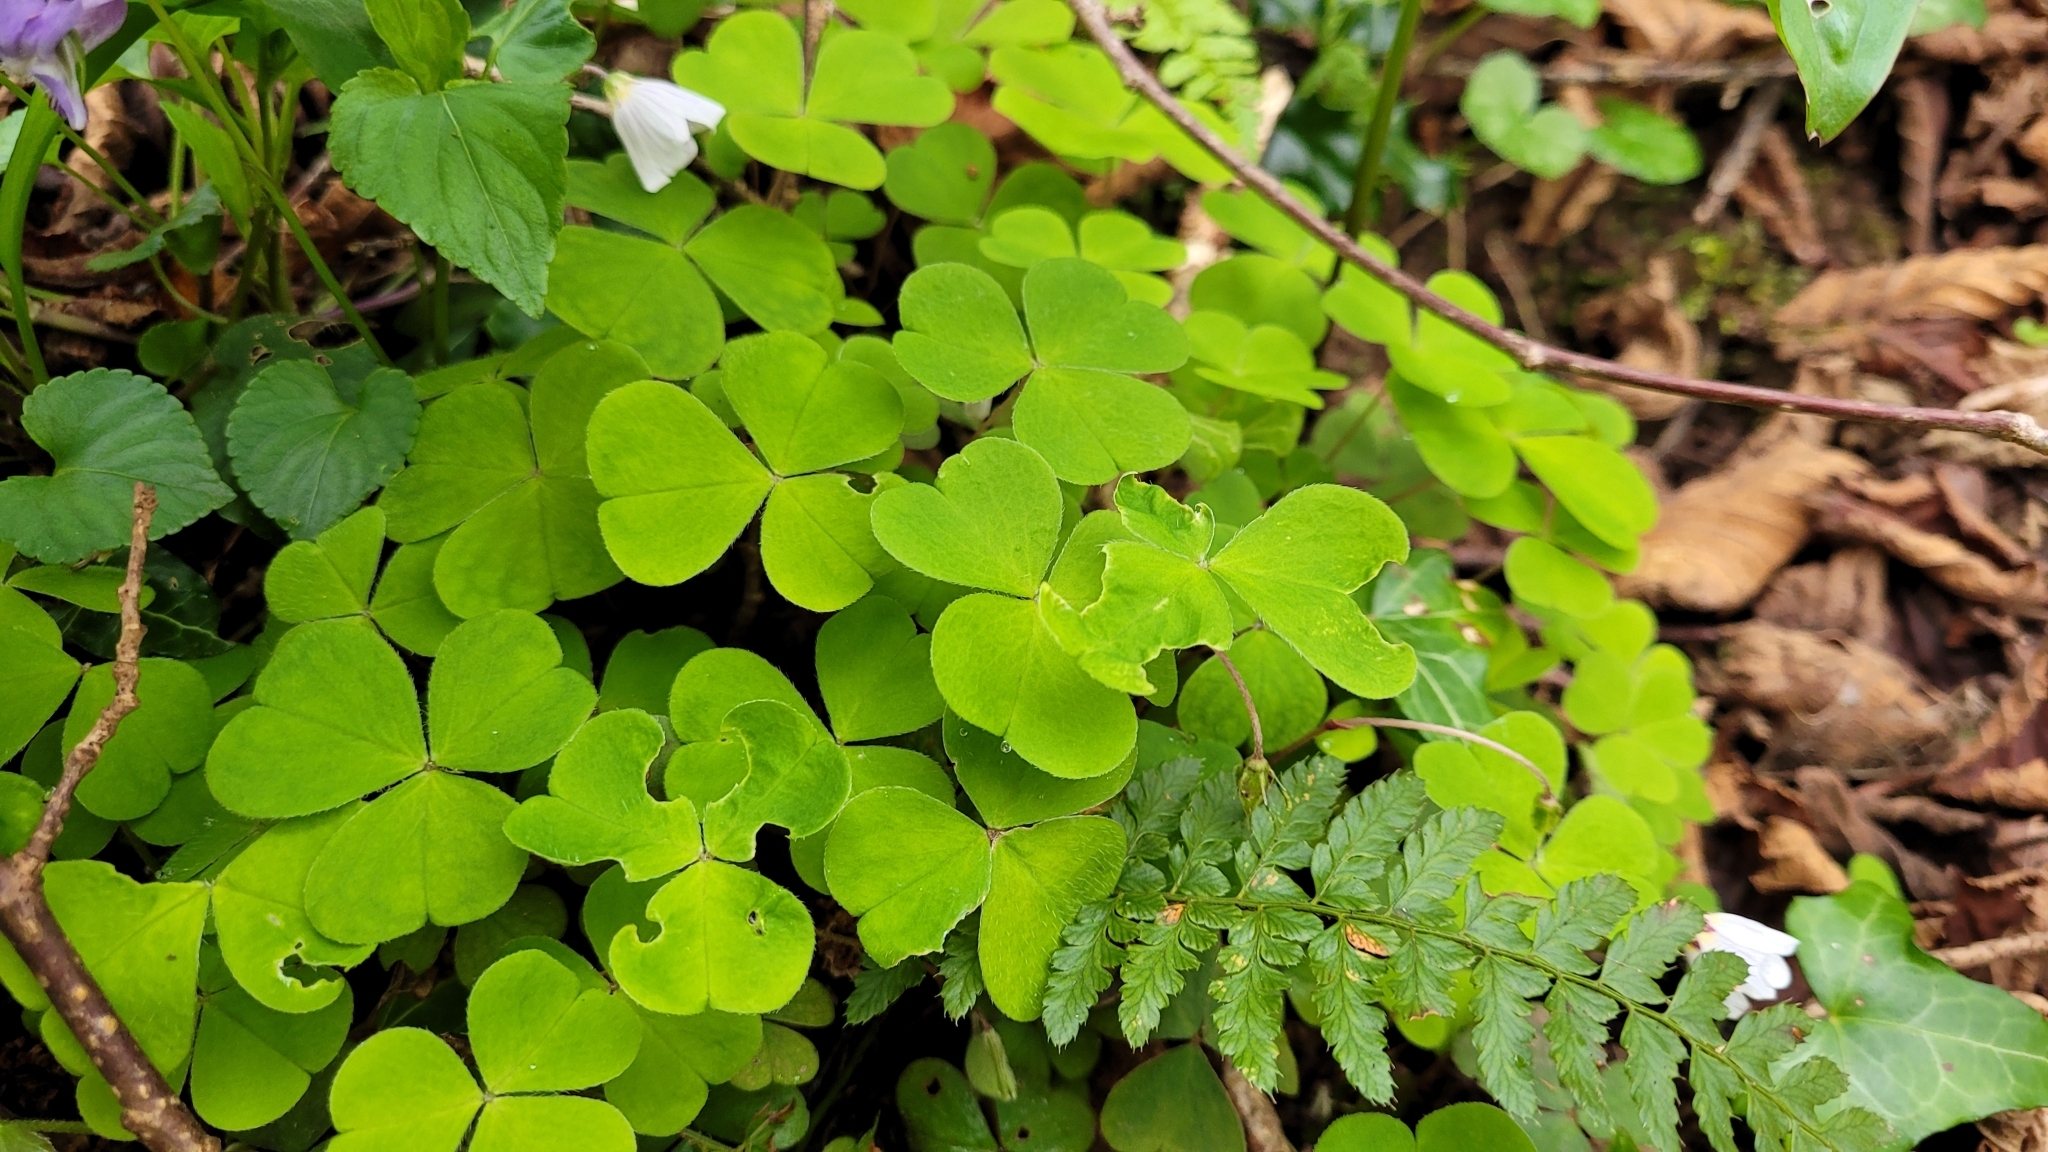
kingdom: Plantae
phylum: Tracheophyta
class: Magnoliopsida
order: Oxalidales
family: Oxalidaceae
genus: Oxalis
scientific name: Oxalis acetosella
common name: Wood-sorrel
